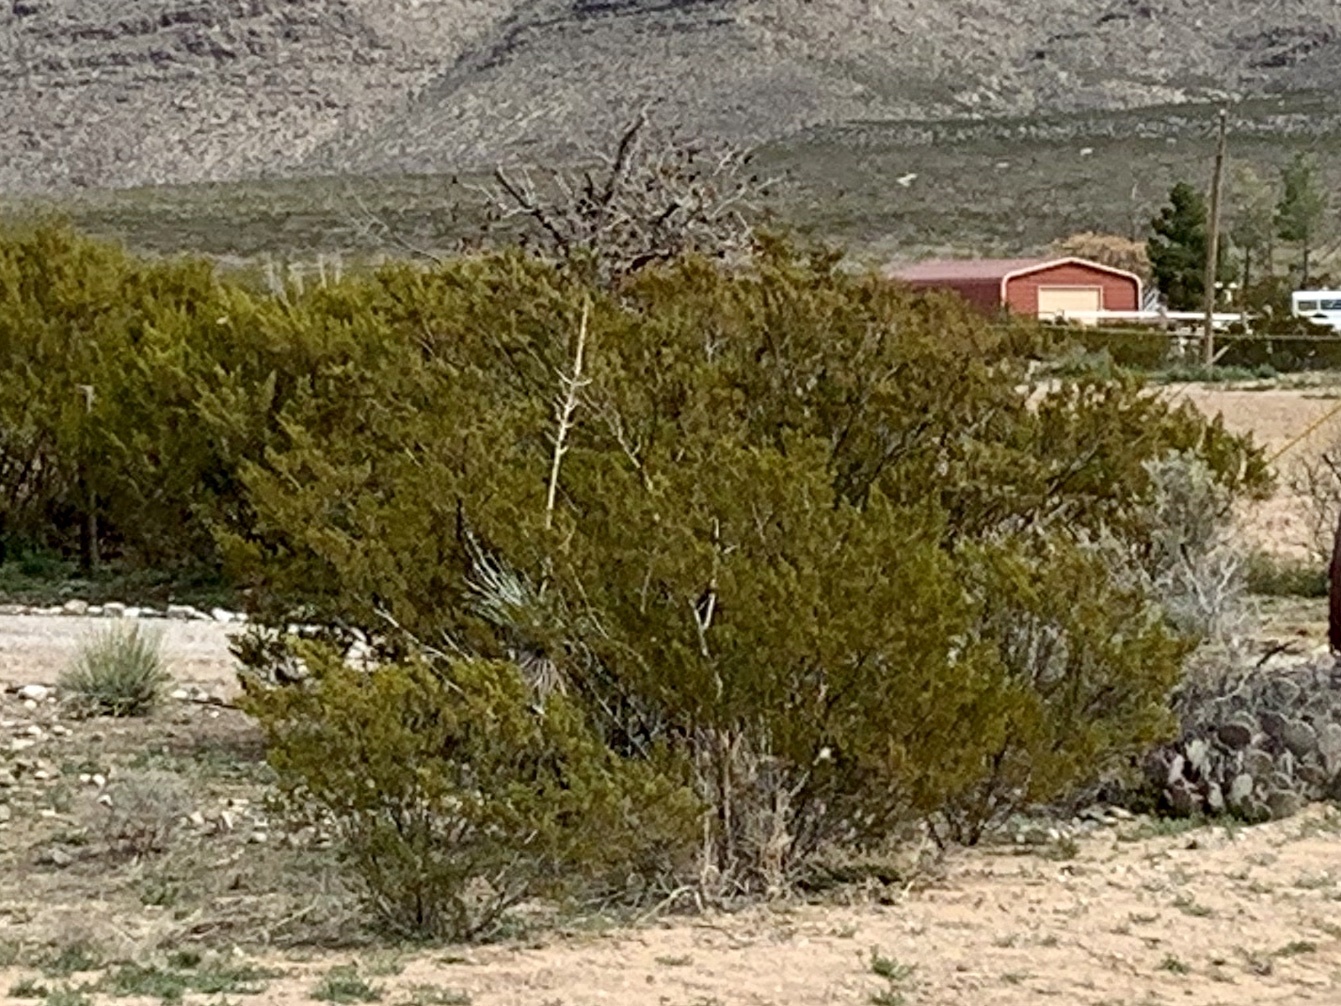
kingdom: Plantae
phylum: Tracheophyta
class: Magnoliopsida
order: Zygophyllales
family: Zygophyllaceae
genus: Larrea
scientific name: Larrea tridentata
